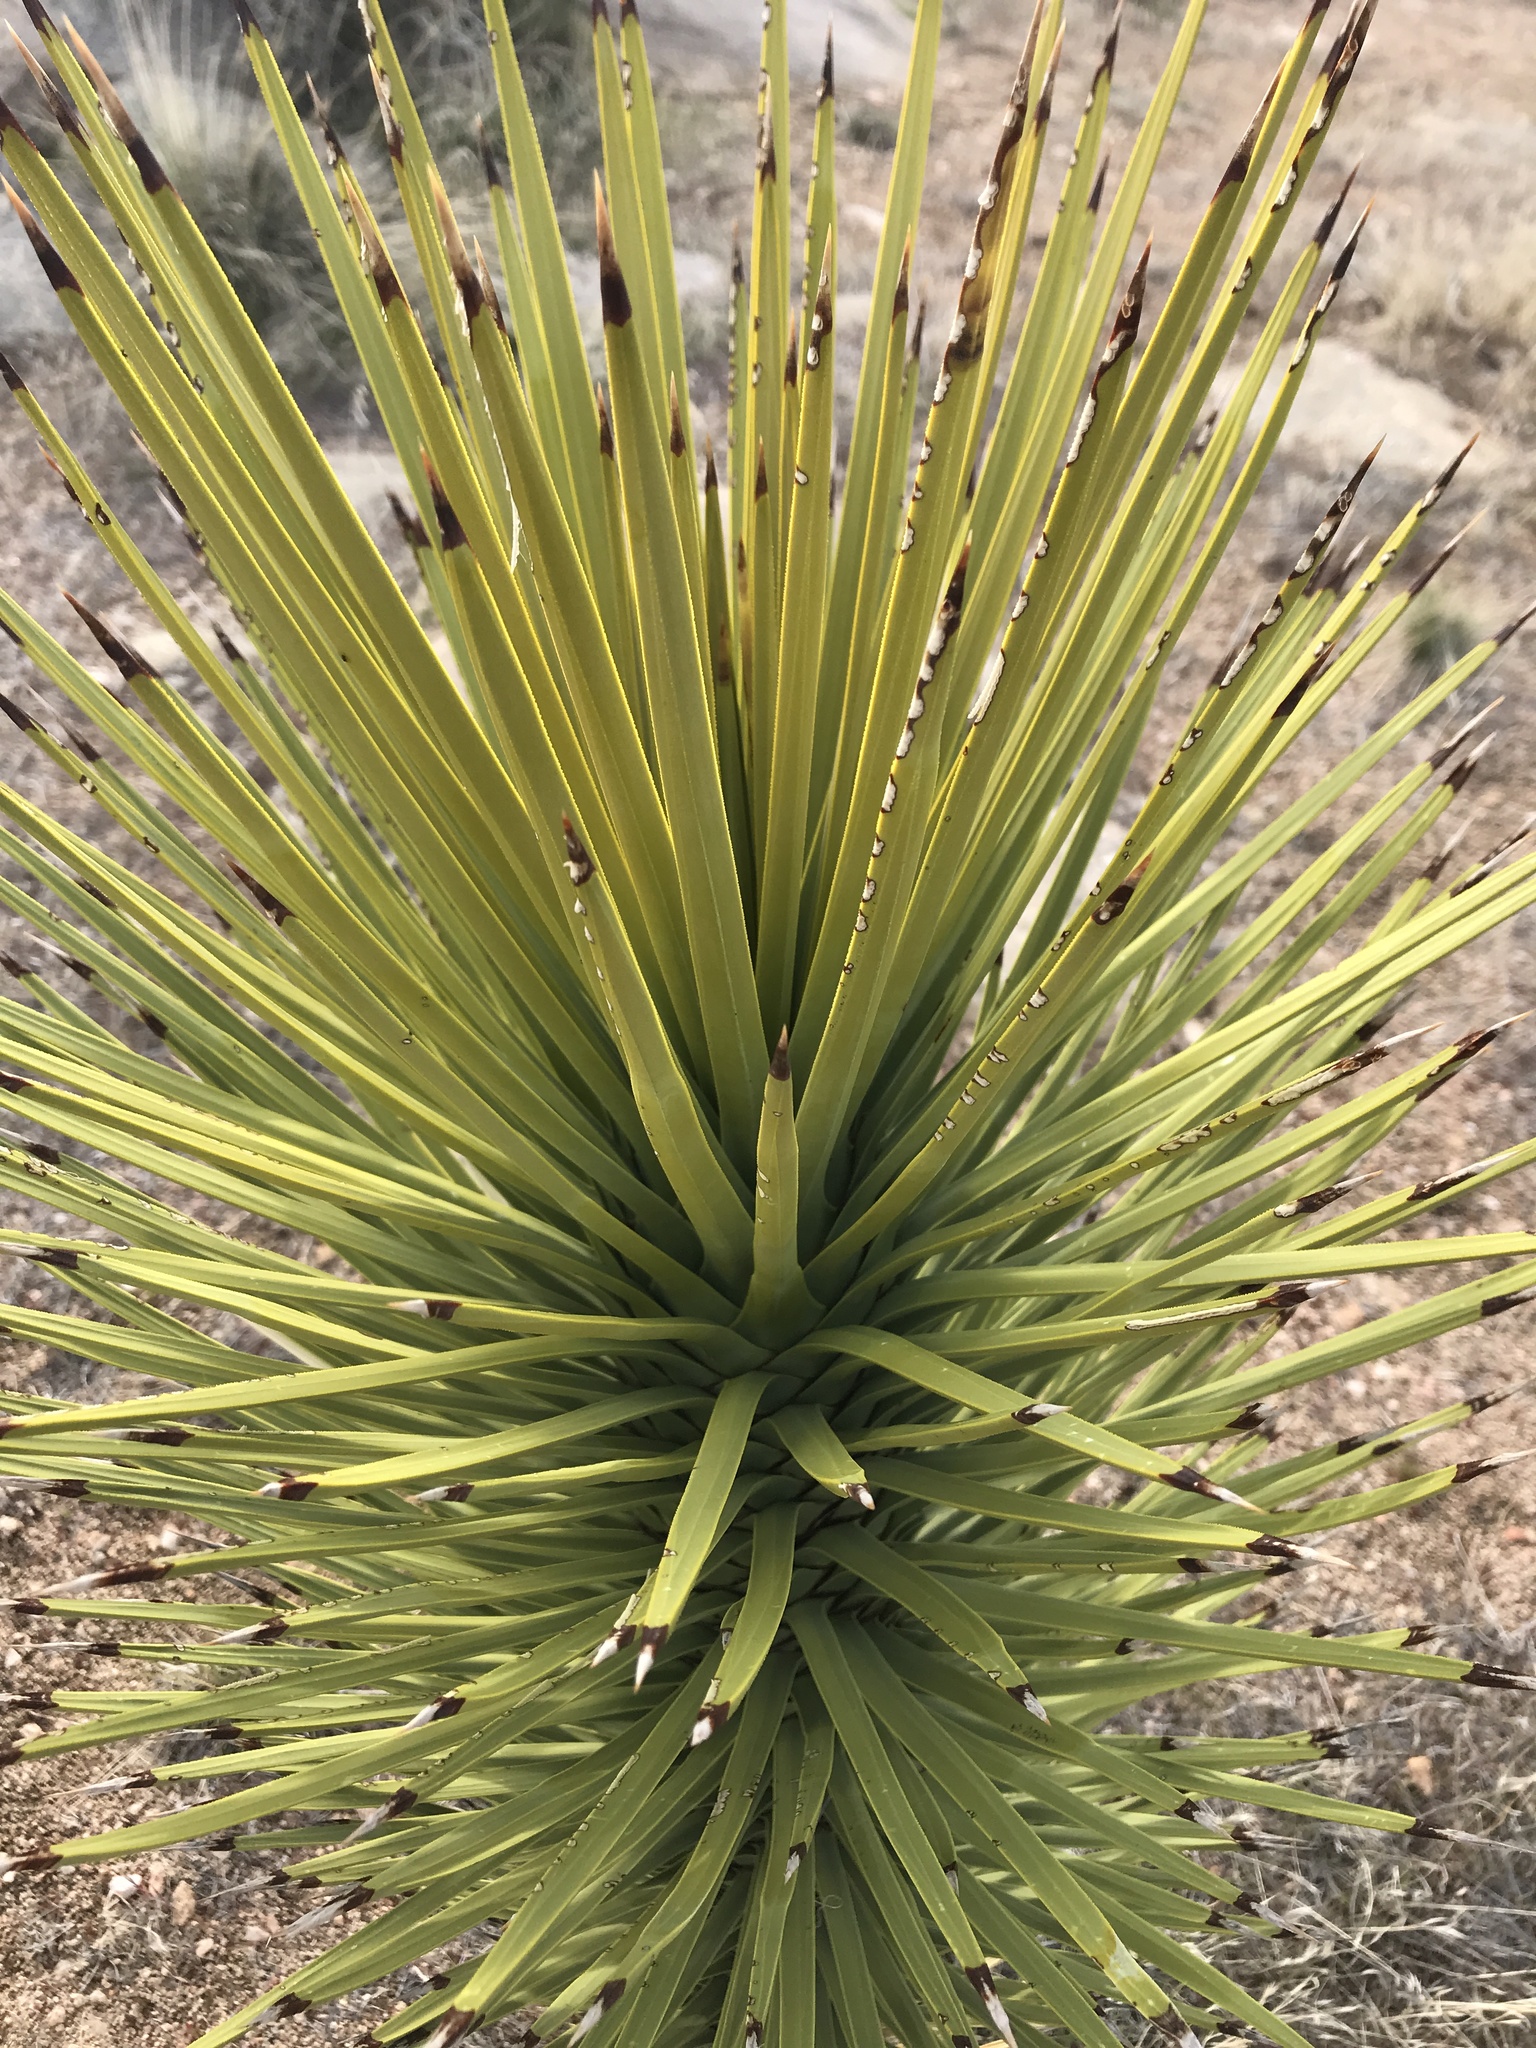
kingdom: Plantae
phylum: Tracheophyta
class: Liliopsida
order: Asparagales
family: Asparagaceae
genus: Yucca
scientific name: Yucca brevifolia
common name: Joshua tree
